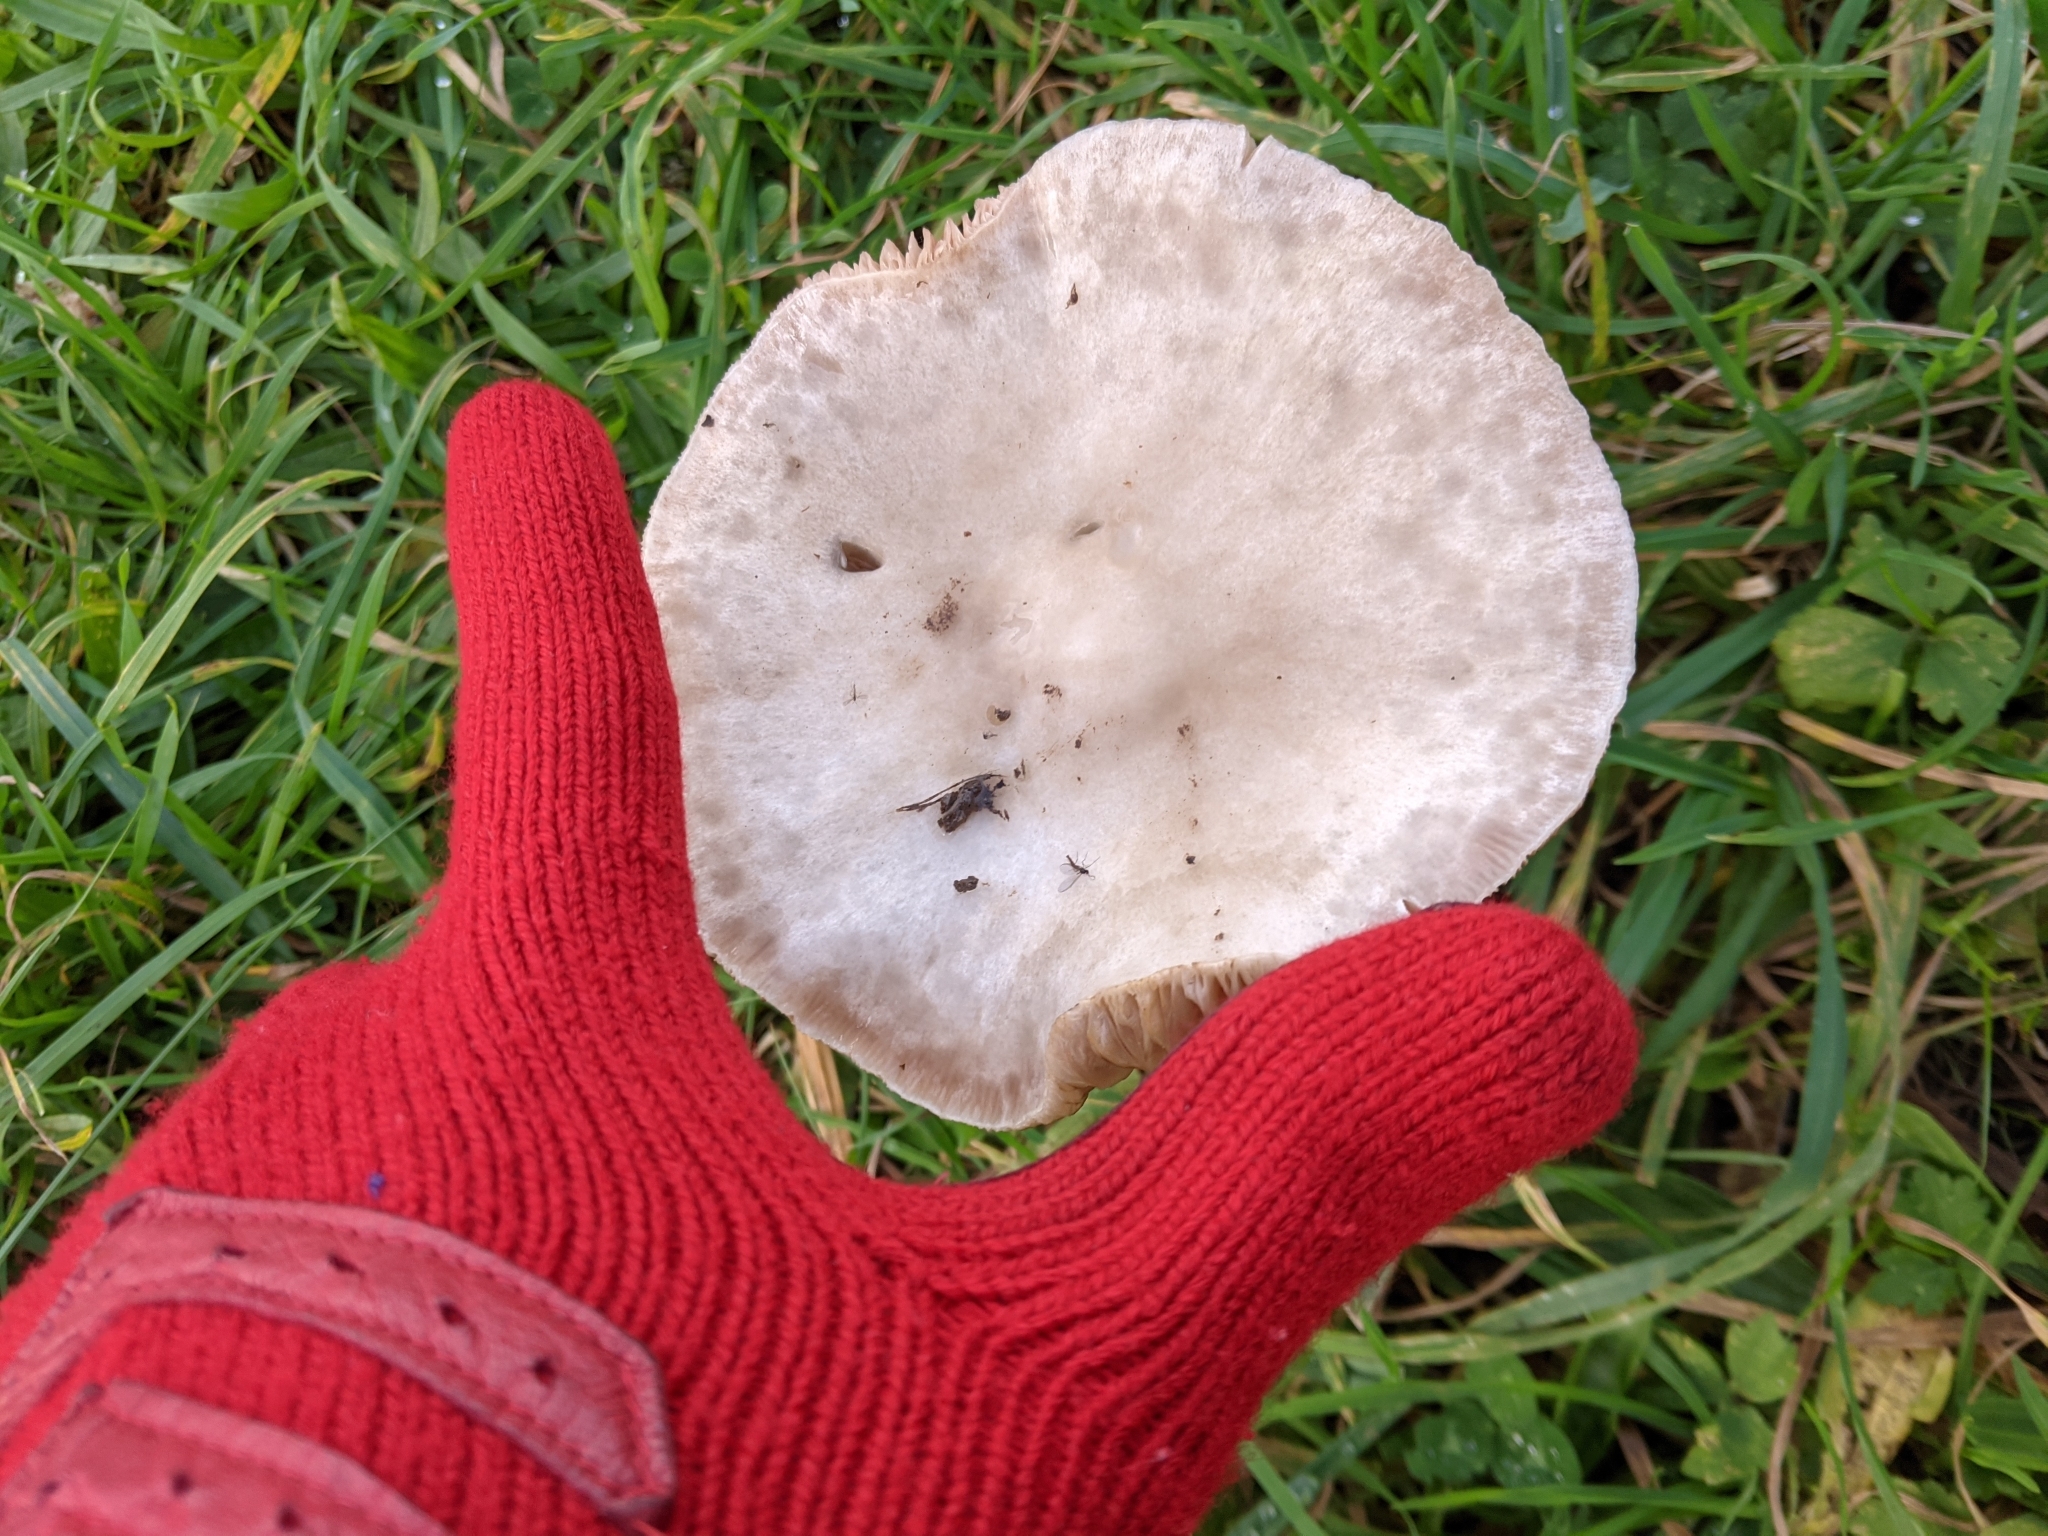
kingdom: Fungi
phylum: Basidiomycota
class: Agaricomycetes
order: Agaricales
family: Pluteaceae
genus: Volvopluteus
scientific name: Volvopluteus gloiocephalus
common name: Stubble rosegill
